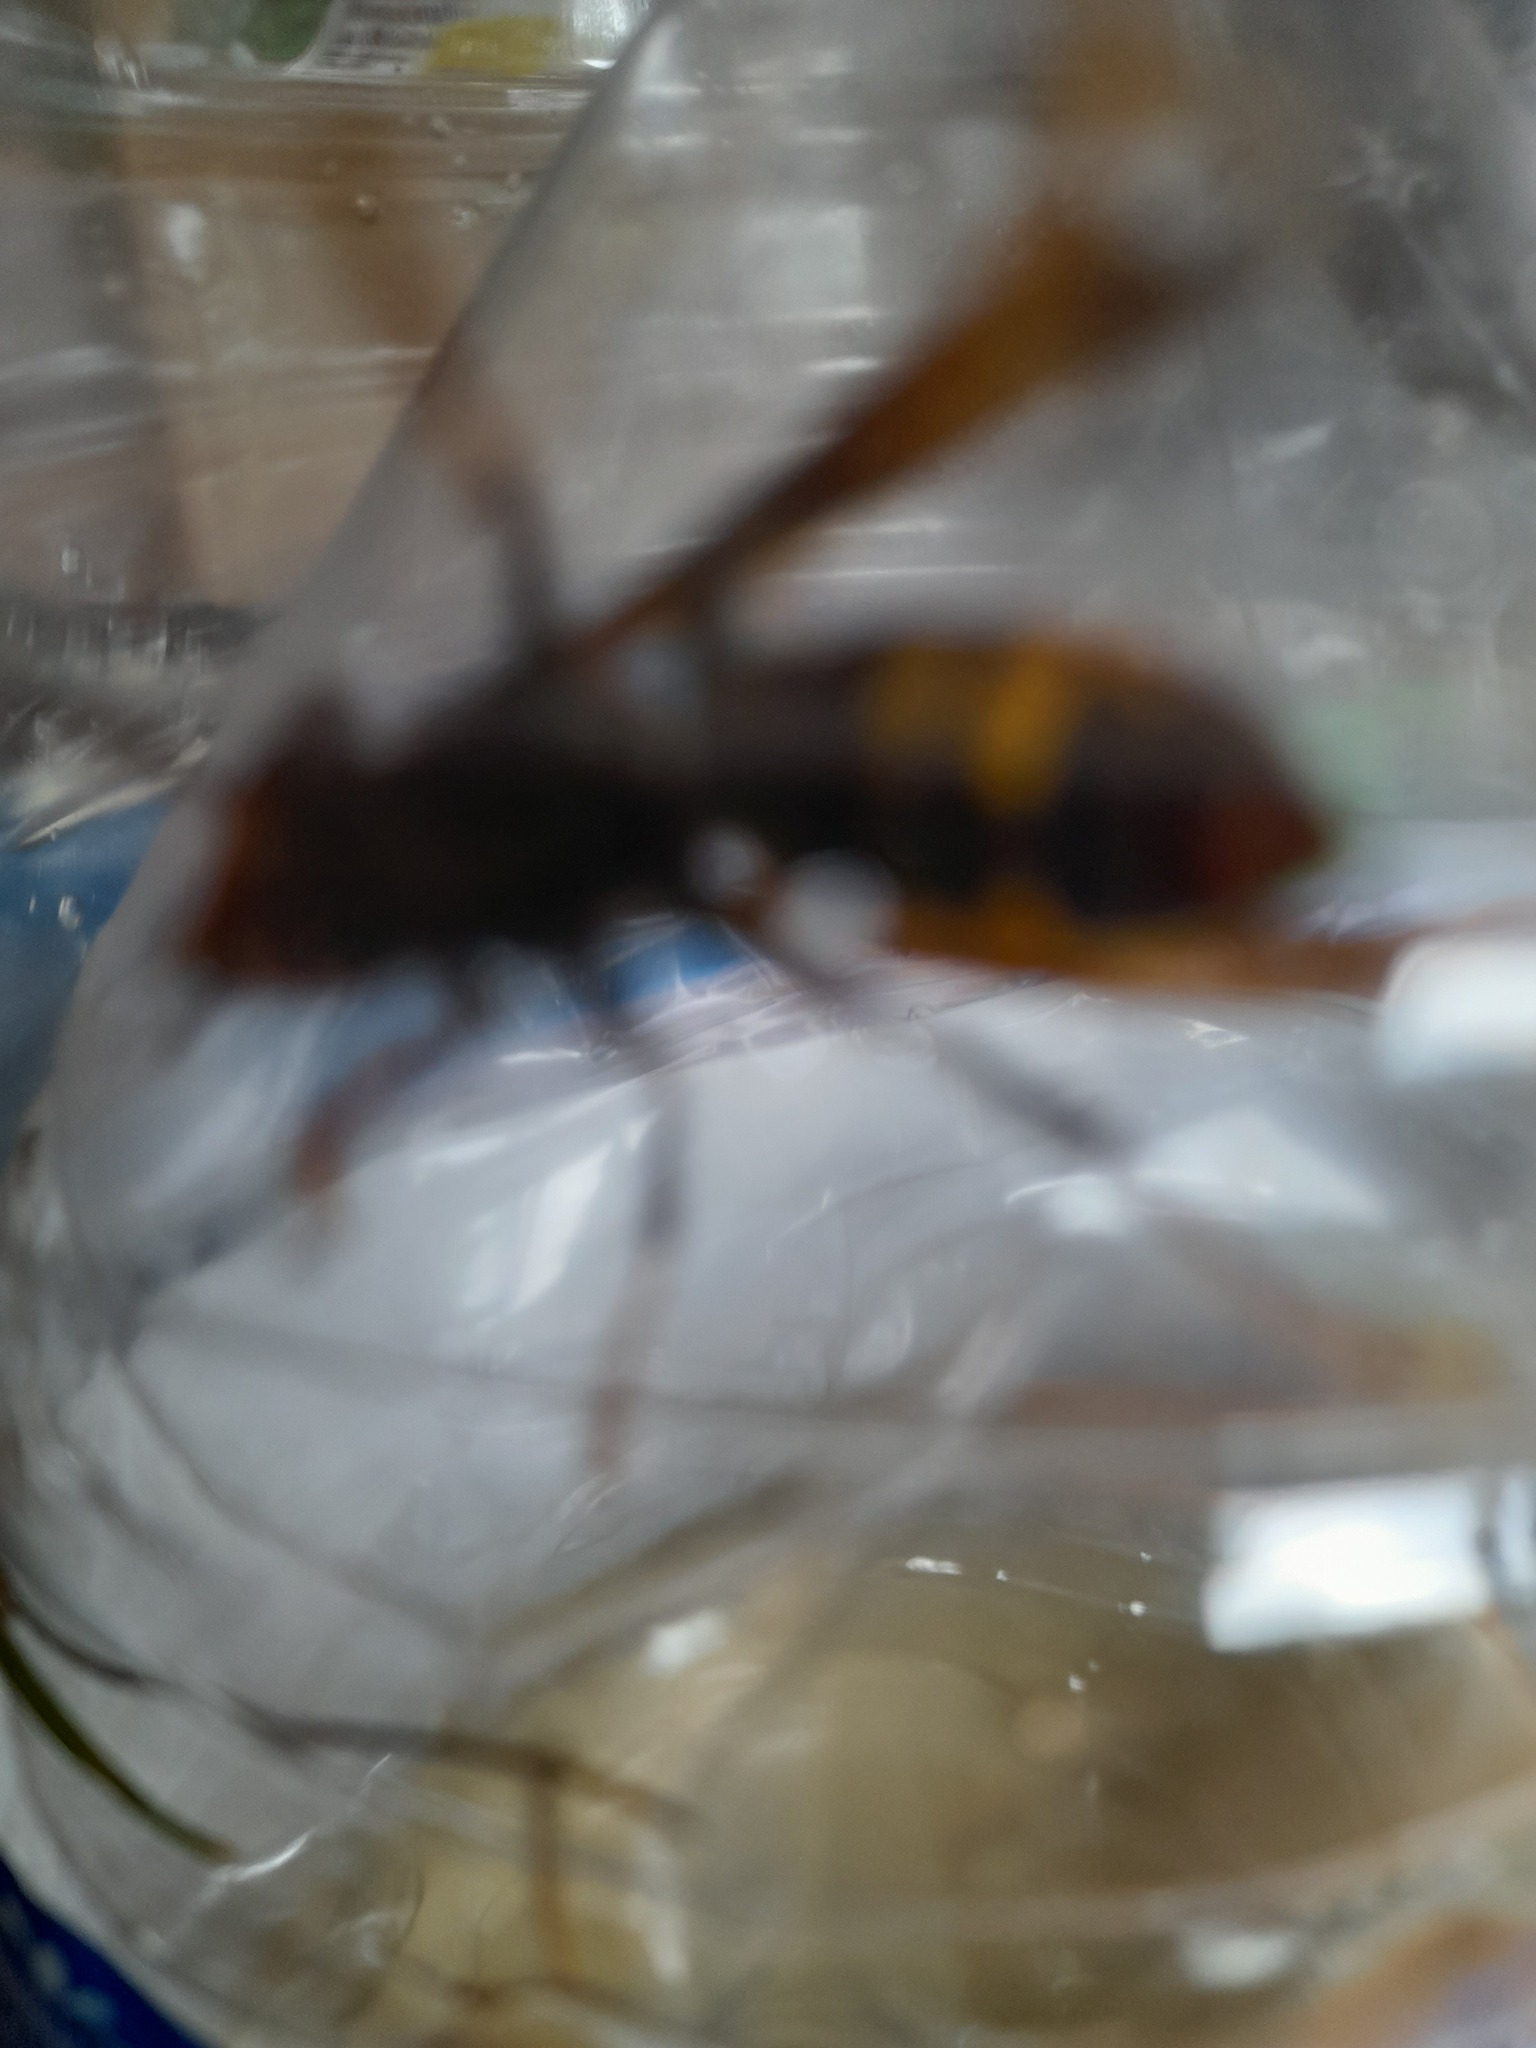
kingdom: Animalia
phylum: Arthropoda
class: Insecta
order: Hymenoptera
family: Vespidae
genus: Vespa
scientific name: Vespa velutina
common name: Asian hornet
